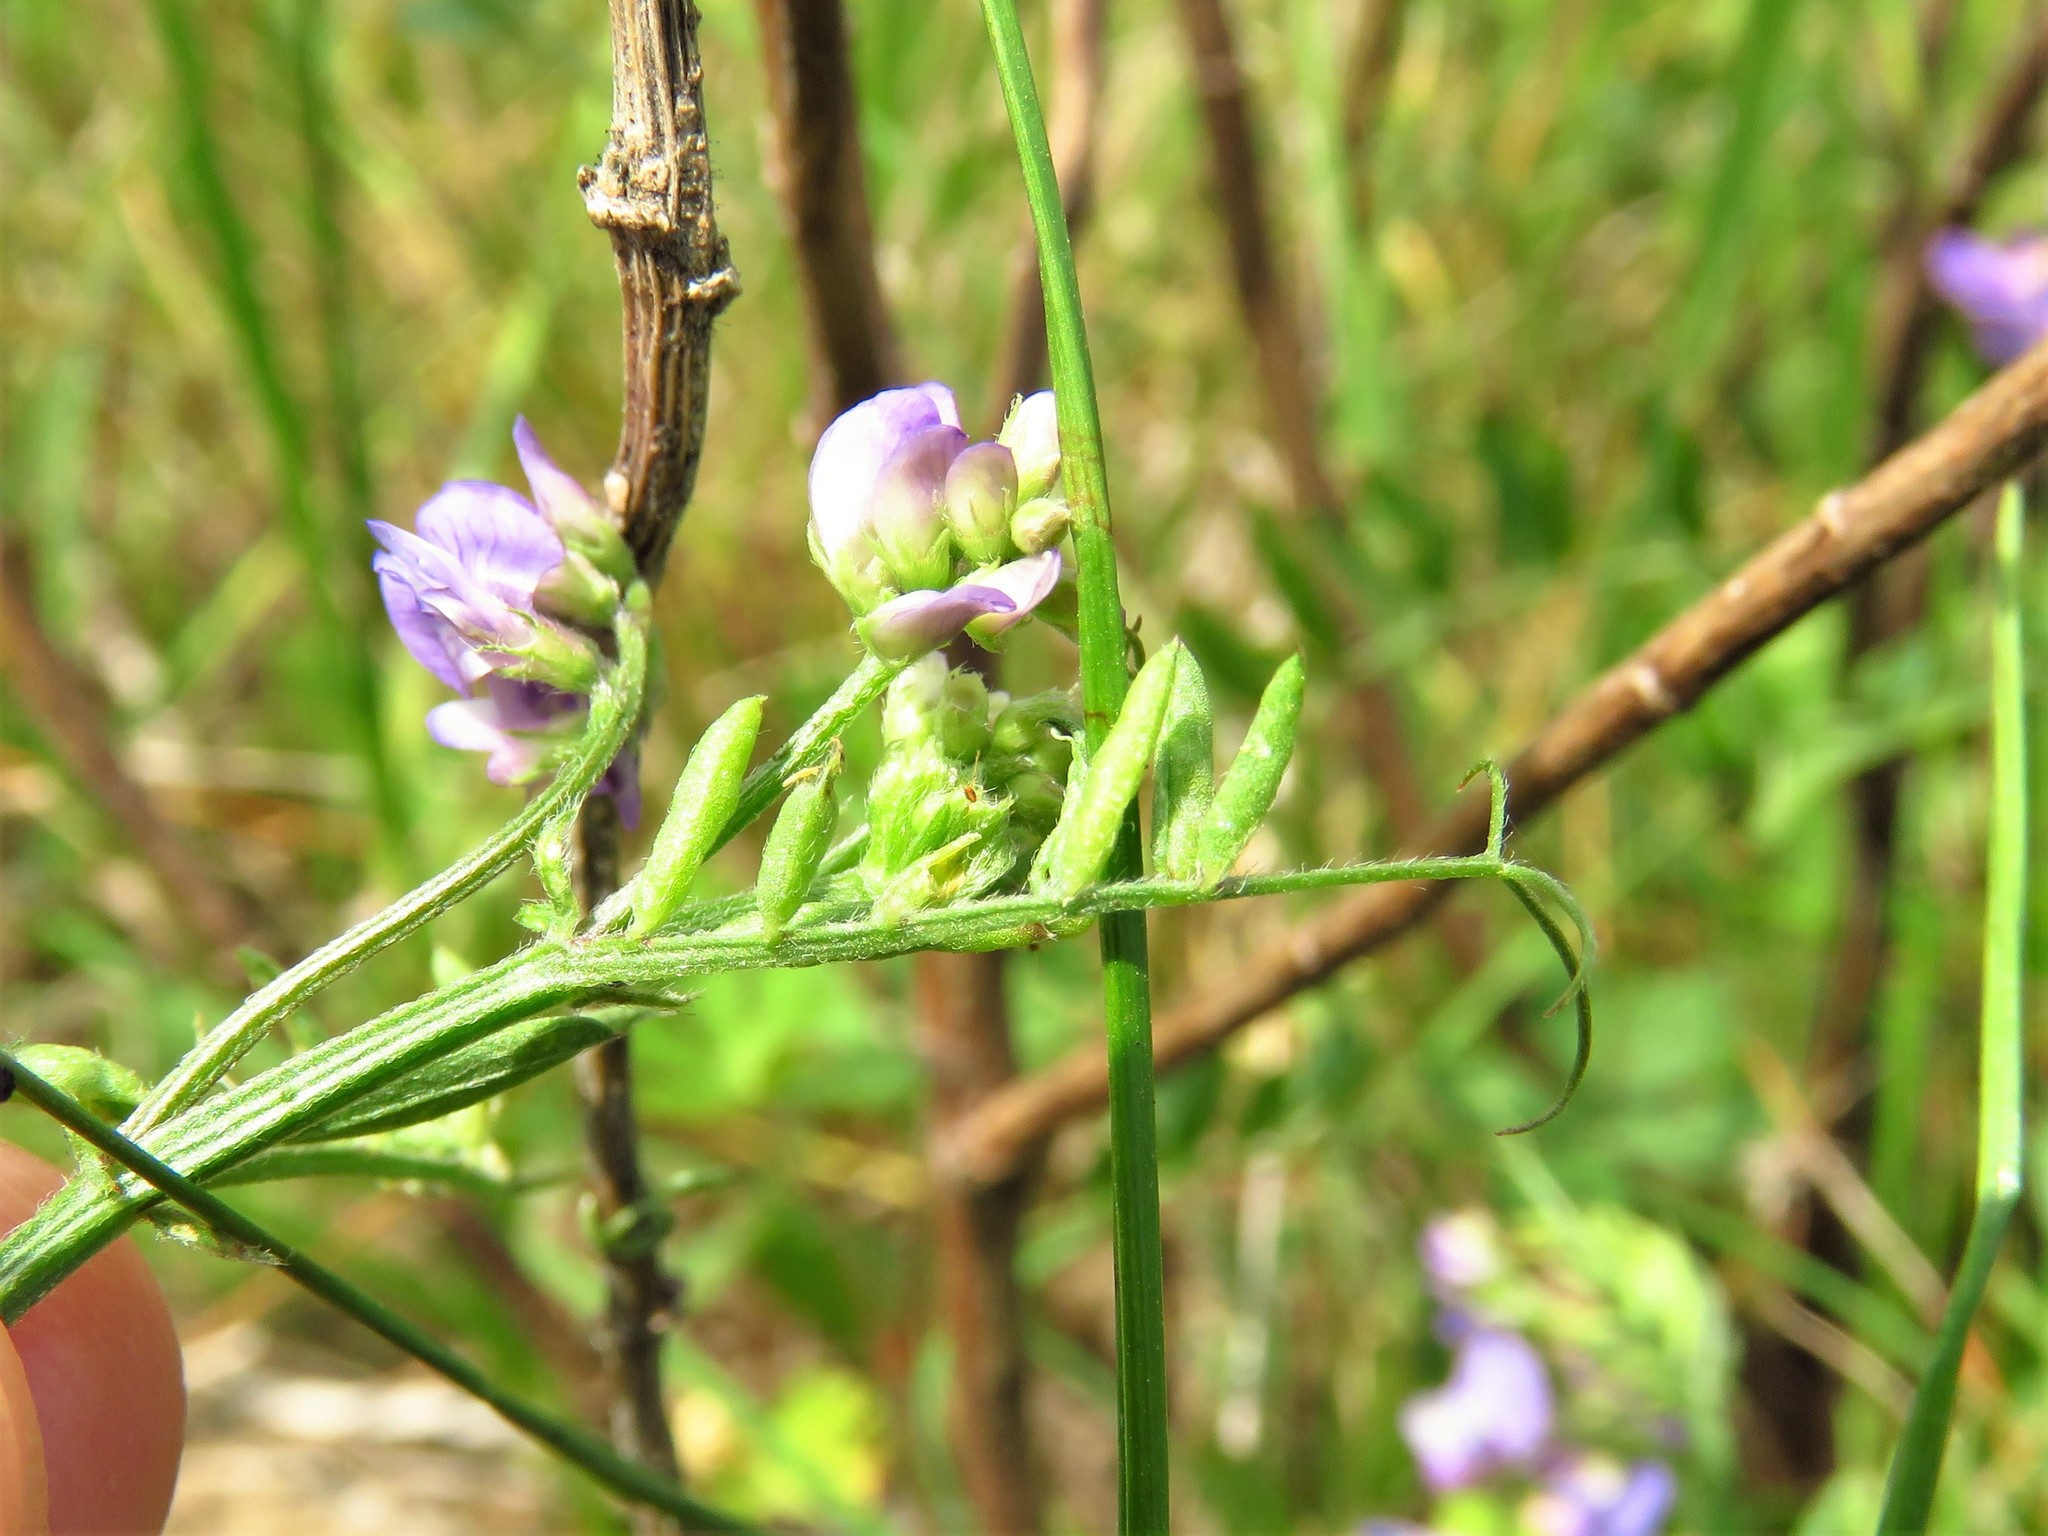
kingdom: Plantae
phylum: Tracheophyta
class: Magnoliopsida
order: Fabales
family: Fabaceae
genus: Vicia
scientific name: Vicia ludoviciana
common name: Louisiana vetch
